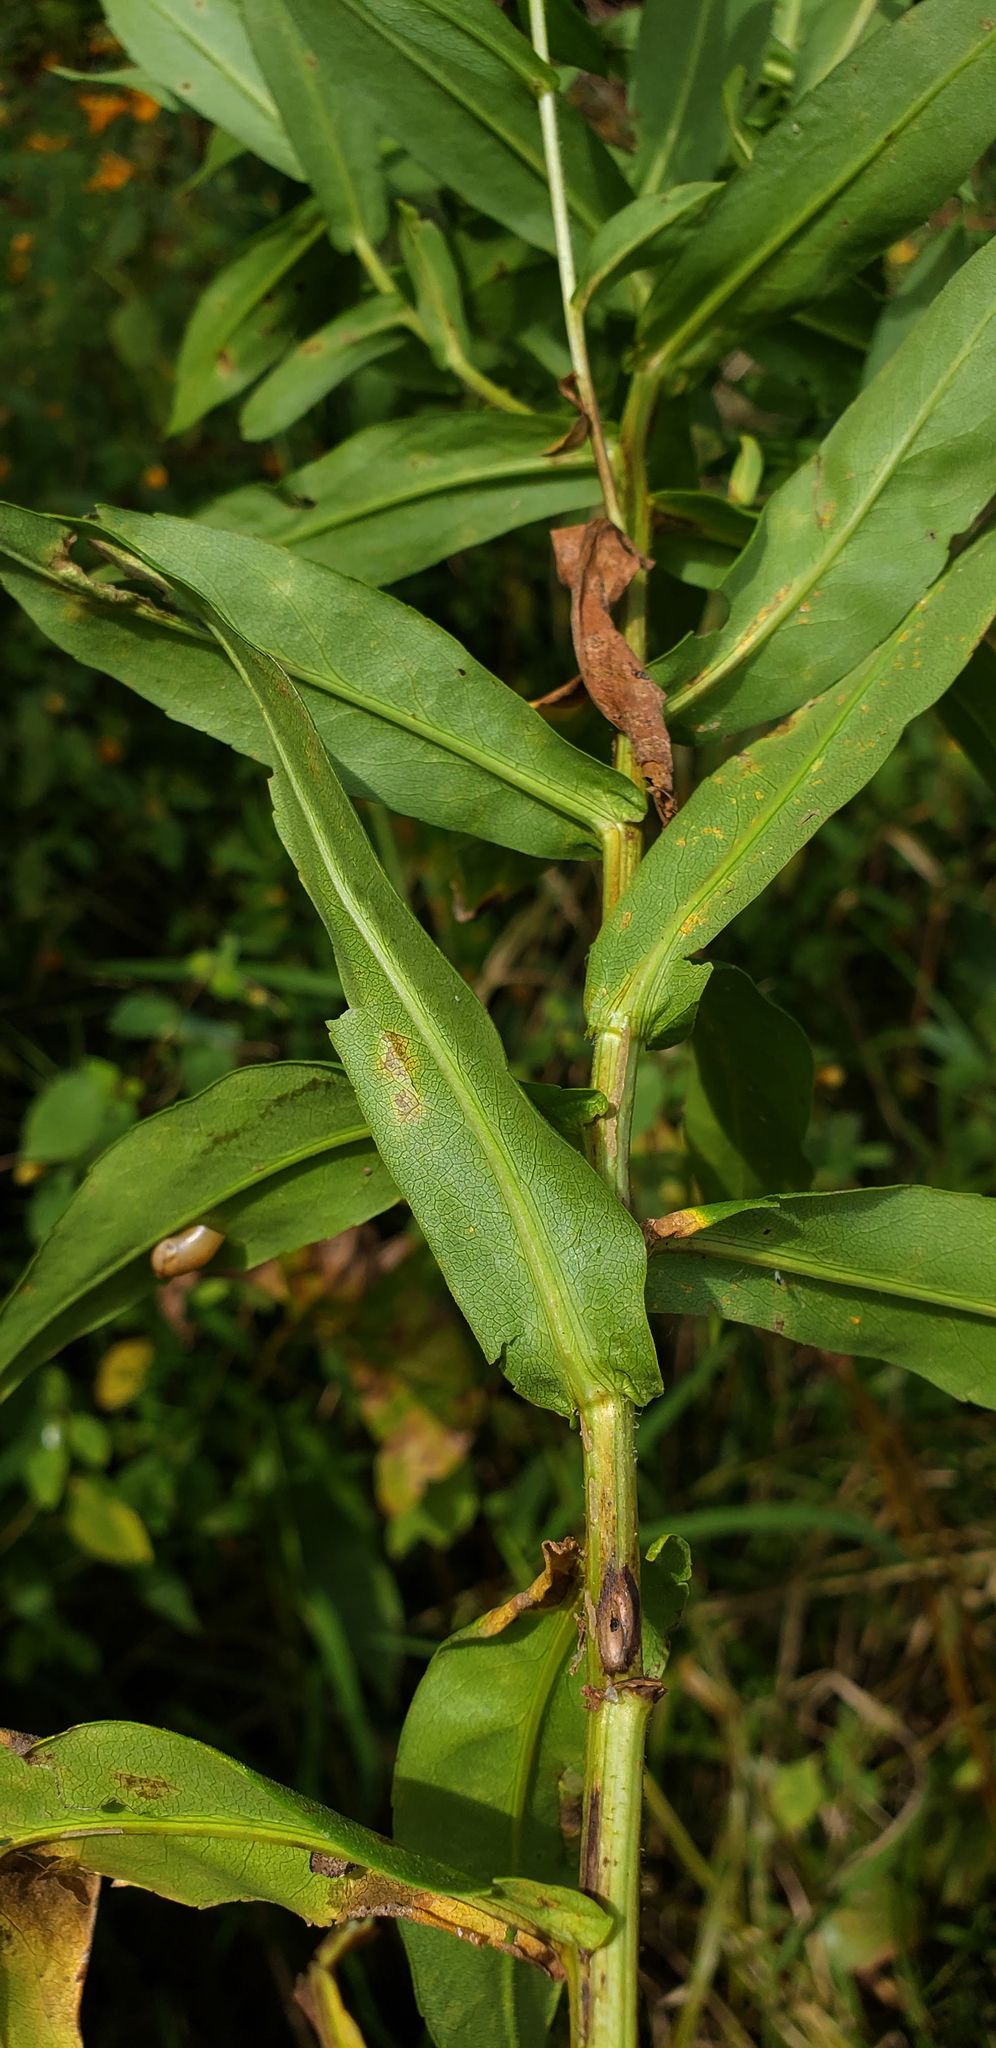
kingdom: Plantae
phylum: Tracheophyta
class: Magnoliopsida
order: Asterales
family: Asteraceae
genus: Symphyotrichum
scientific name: Symphyotrichum firmum
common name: Shining aster
